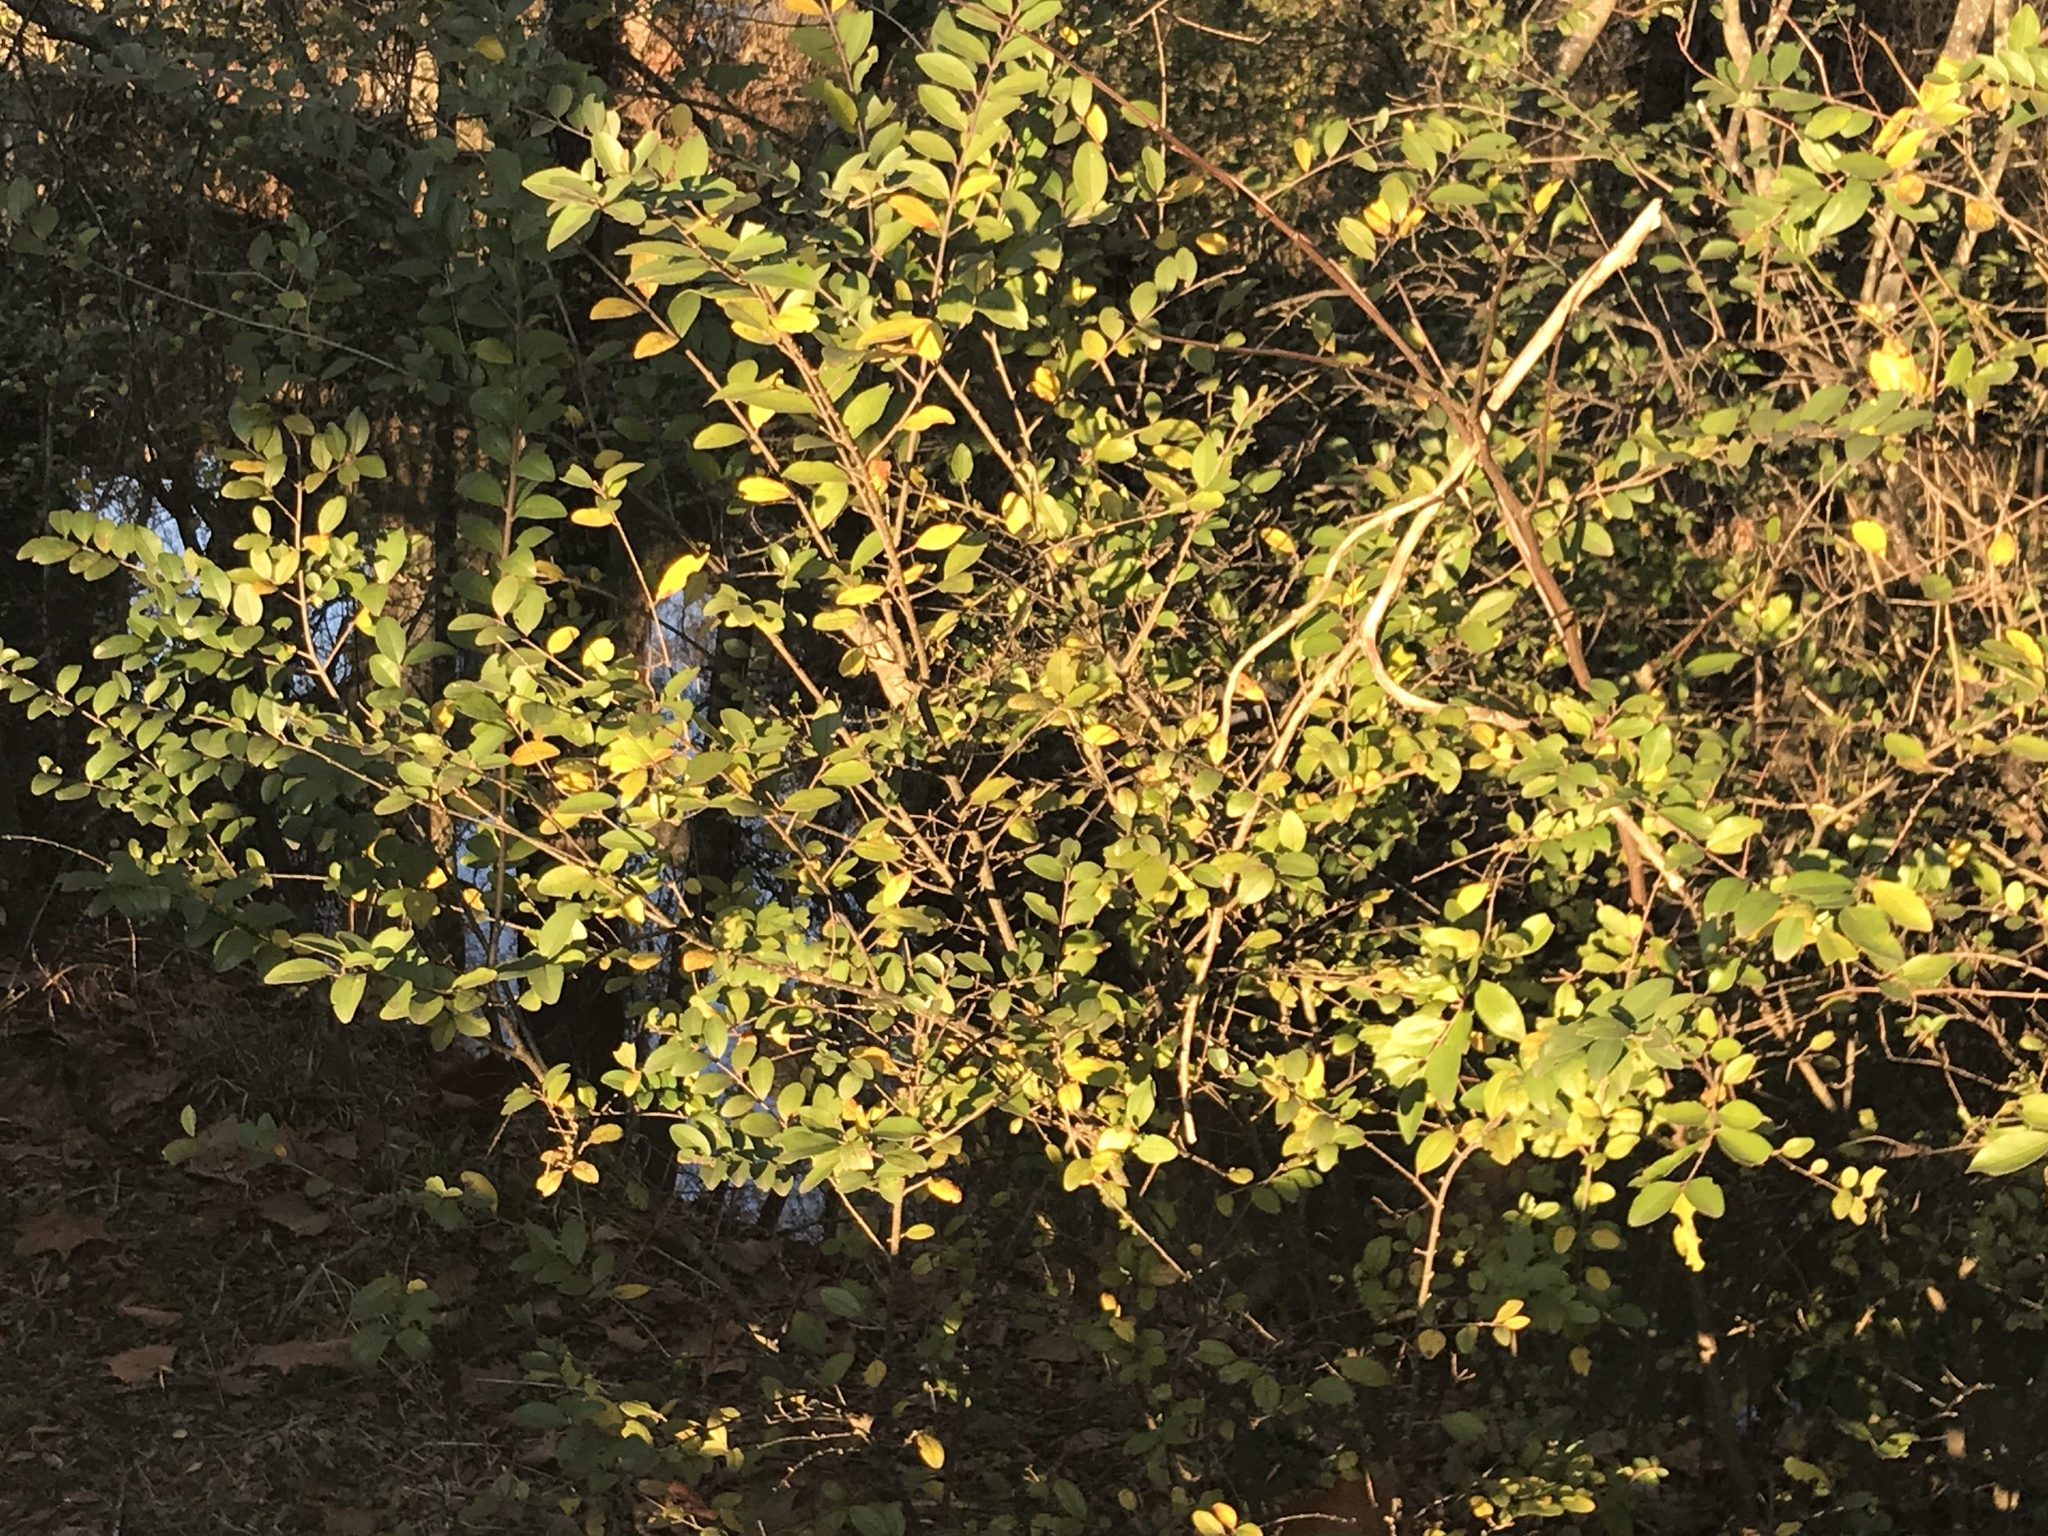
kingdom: Plantae
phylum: Tracheophyta
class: Magnoliopsida
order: Lamiales
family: Oleaceae
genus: Ligustrum
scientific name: Ligustrum sinense
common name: Chinese privet
